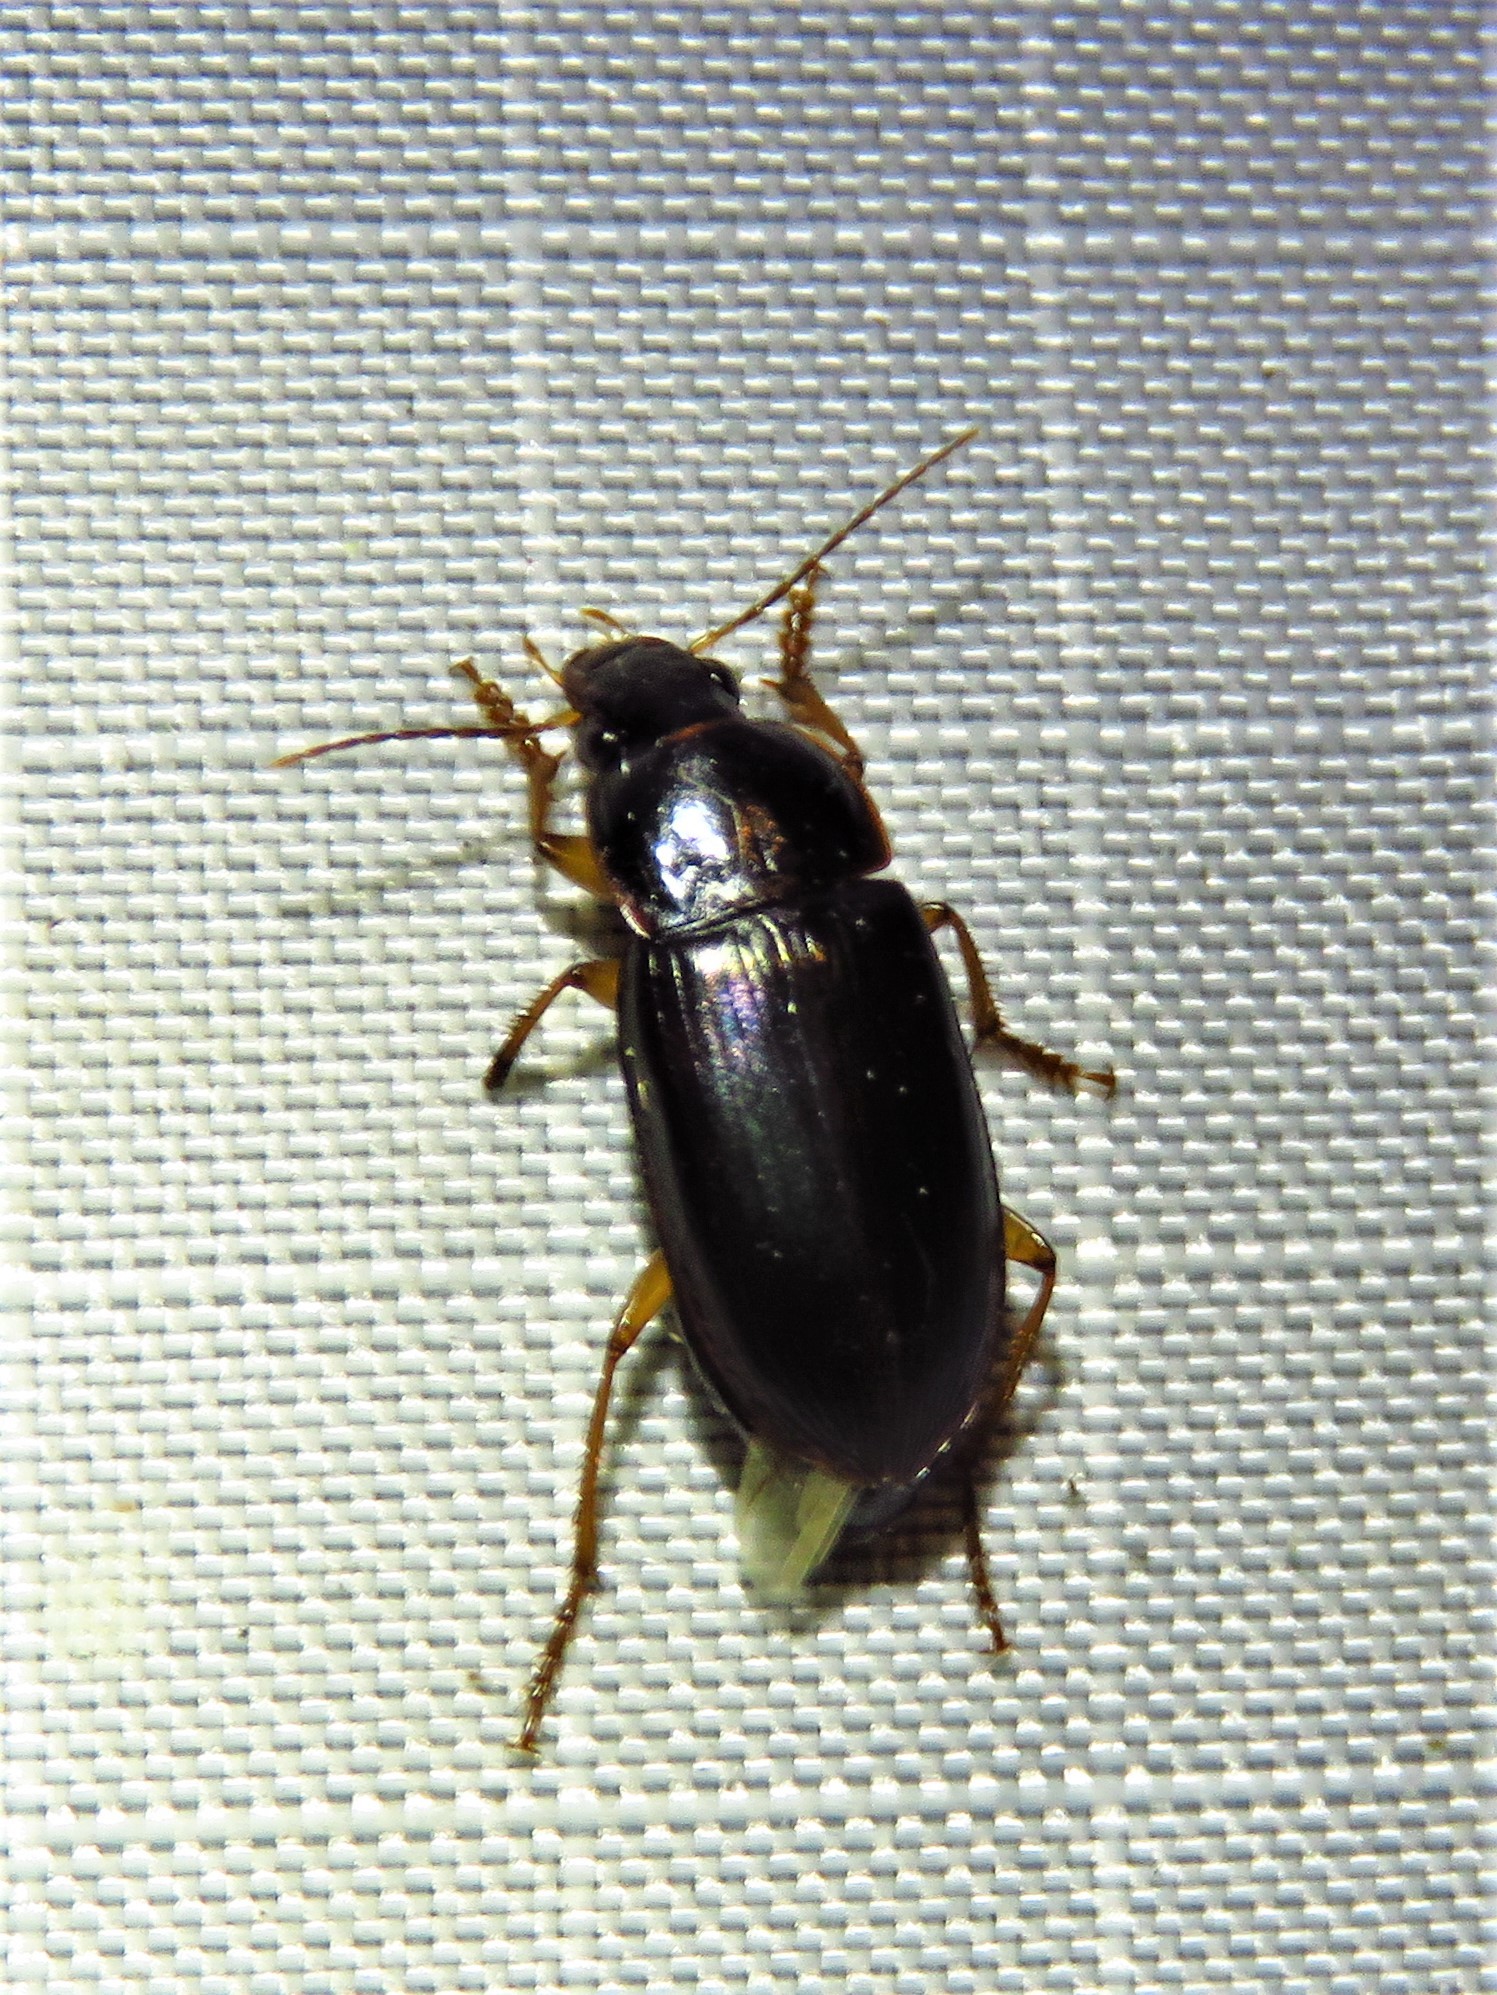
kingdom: Animalia
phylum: Arthropoda
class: Insecta
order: Coleoptera
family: Carabidae
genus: Notiobia
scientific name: Notiobia terminata
